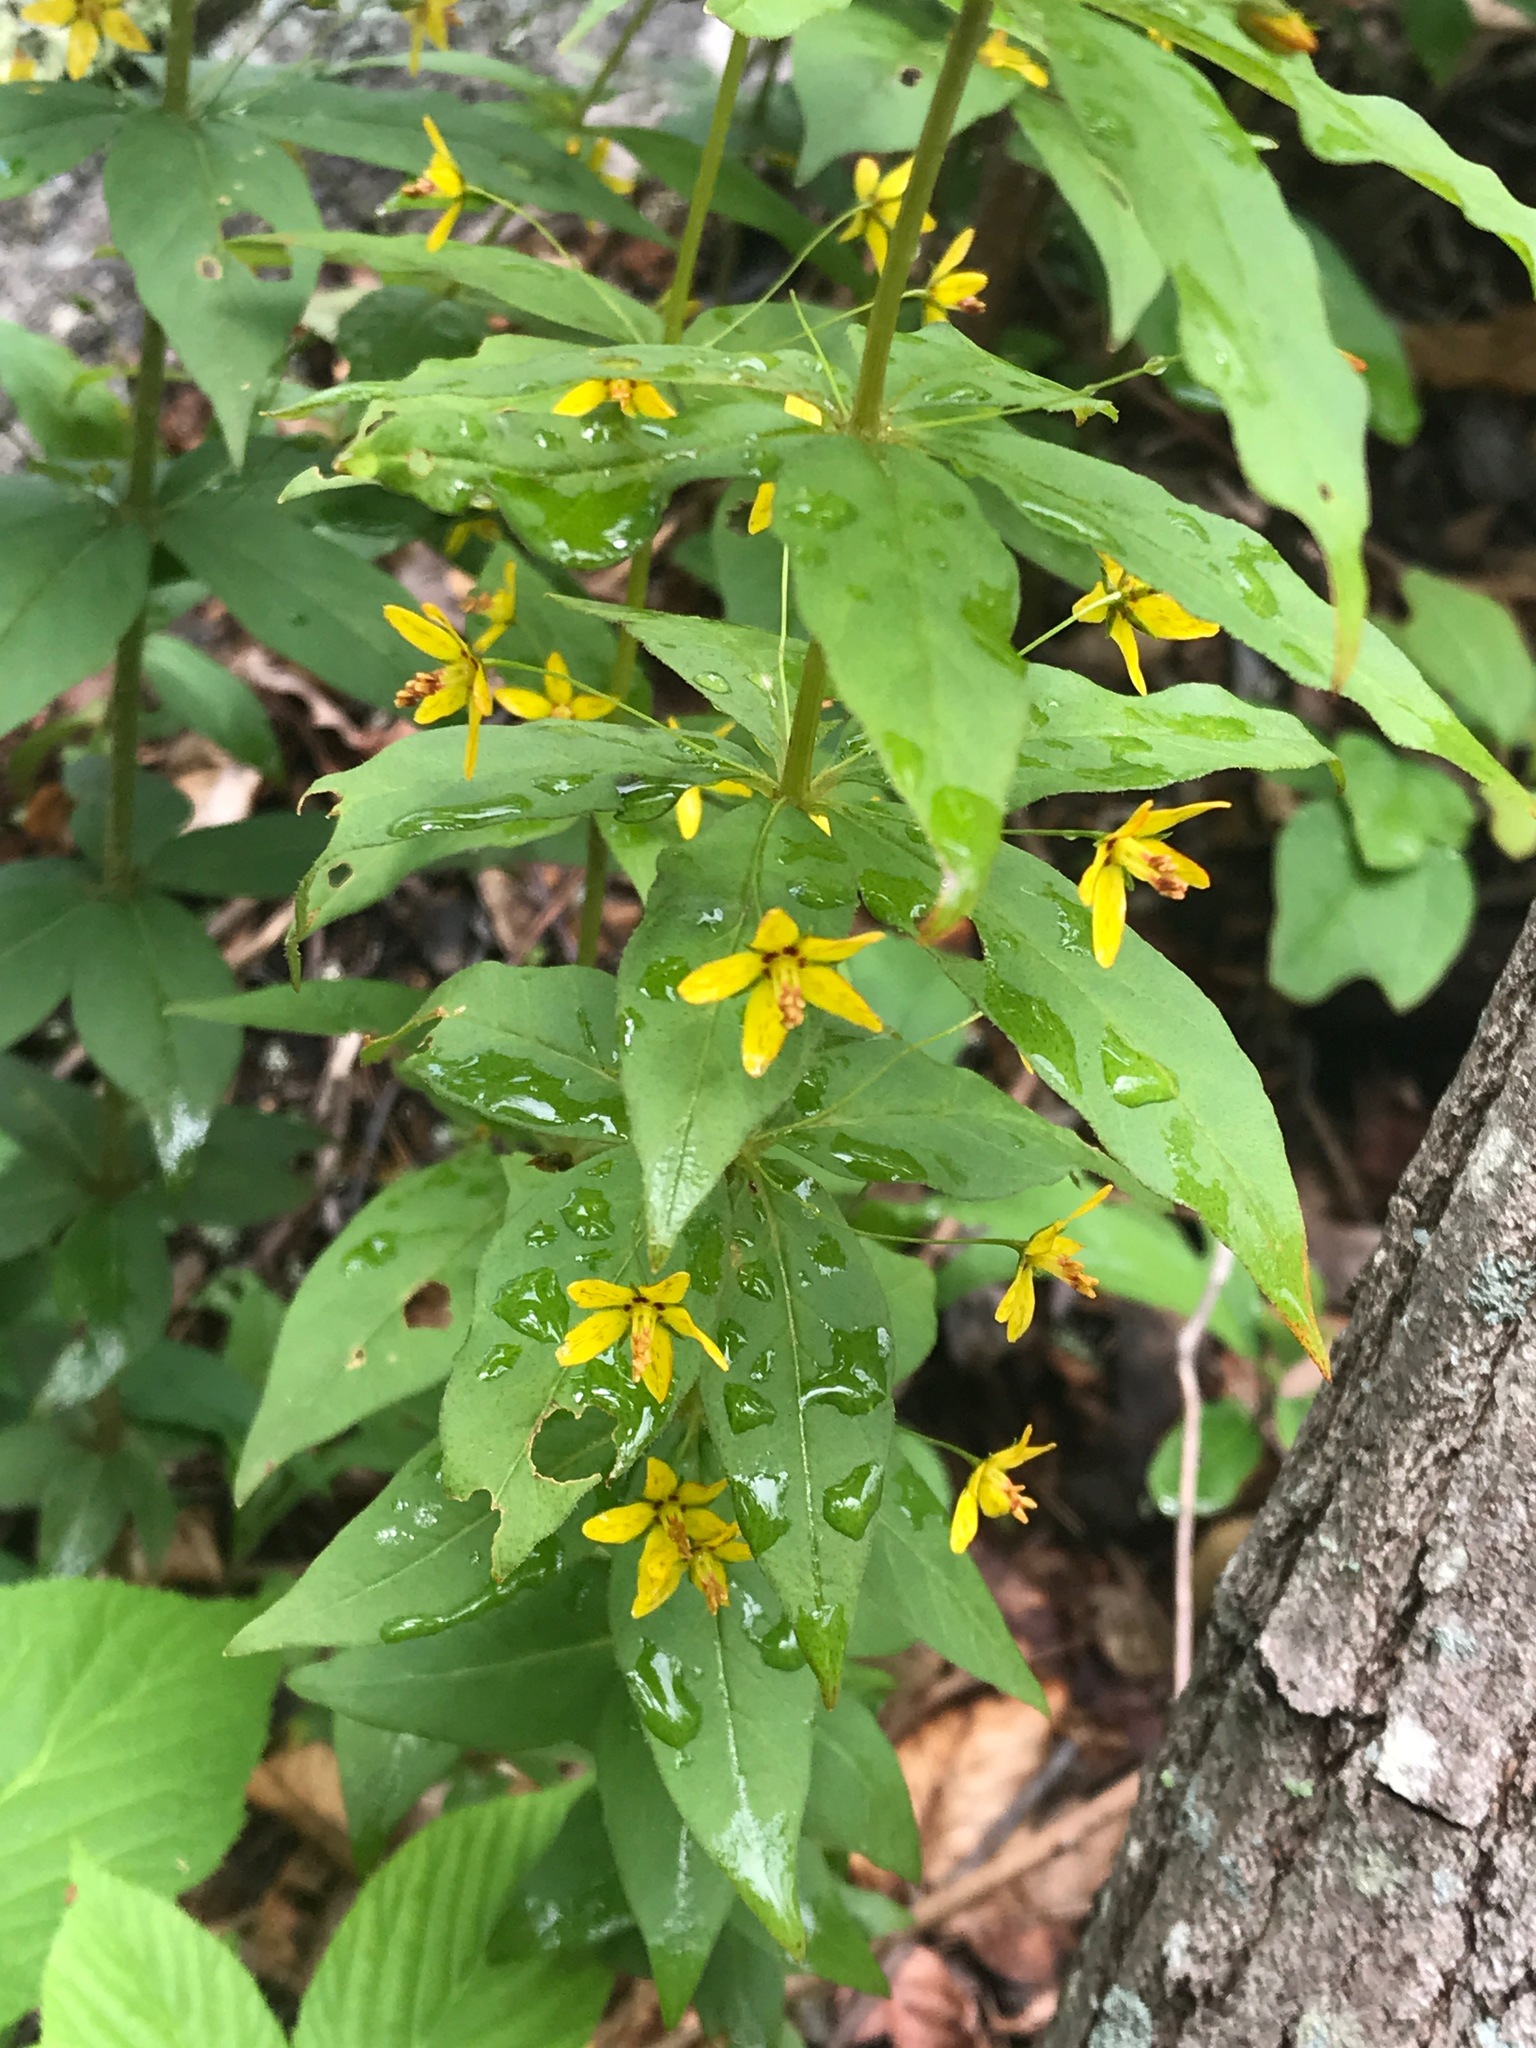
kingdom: Plantae
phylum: Tracheophyta
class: Magnoliopsida
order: Ericales
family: Primulaceae
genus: Lysimachia
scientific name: Lysimachia quadrifolia
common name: Whorled loosestrife
